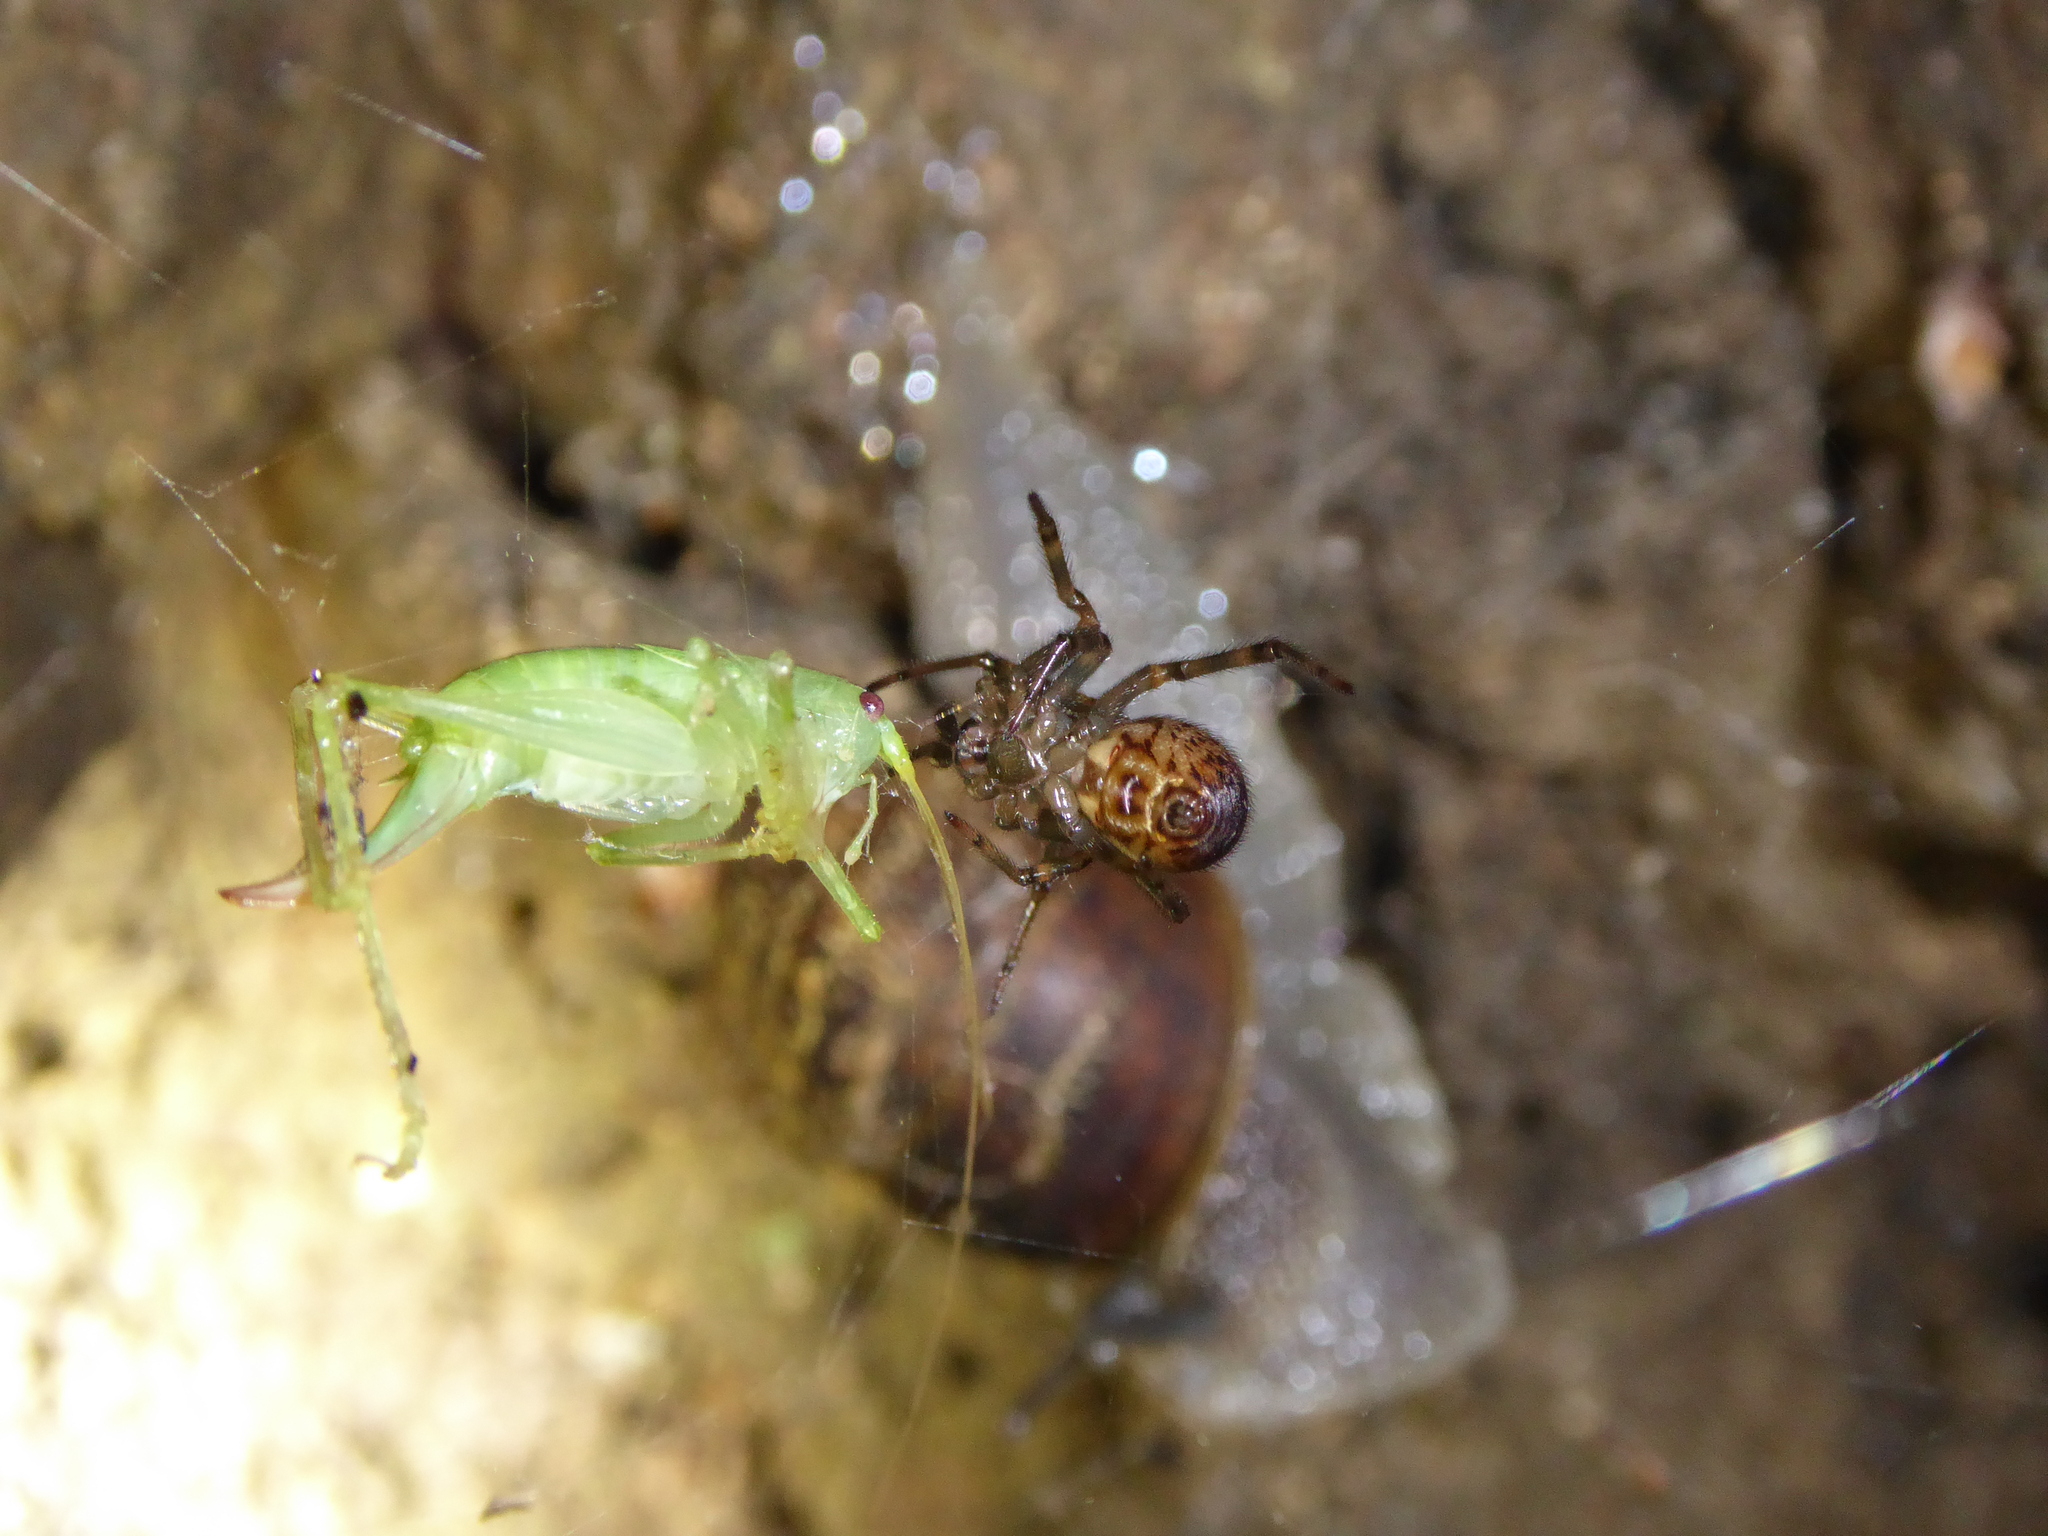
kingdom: Animalia
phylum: Arthropoda
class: Arachnida
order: Araneae
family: Theridiidae
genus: Steatoda
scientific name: Steatoda nobilis
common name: Cobweb weaver
